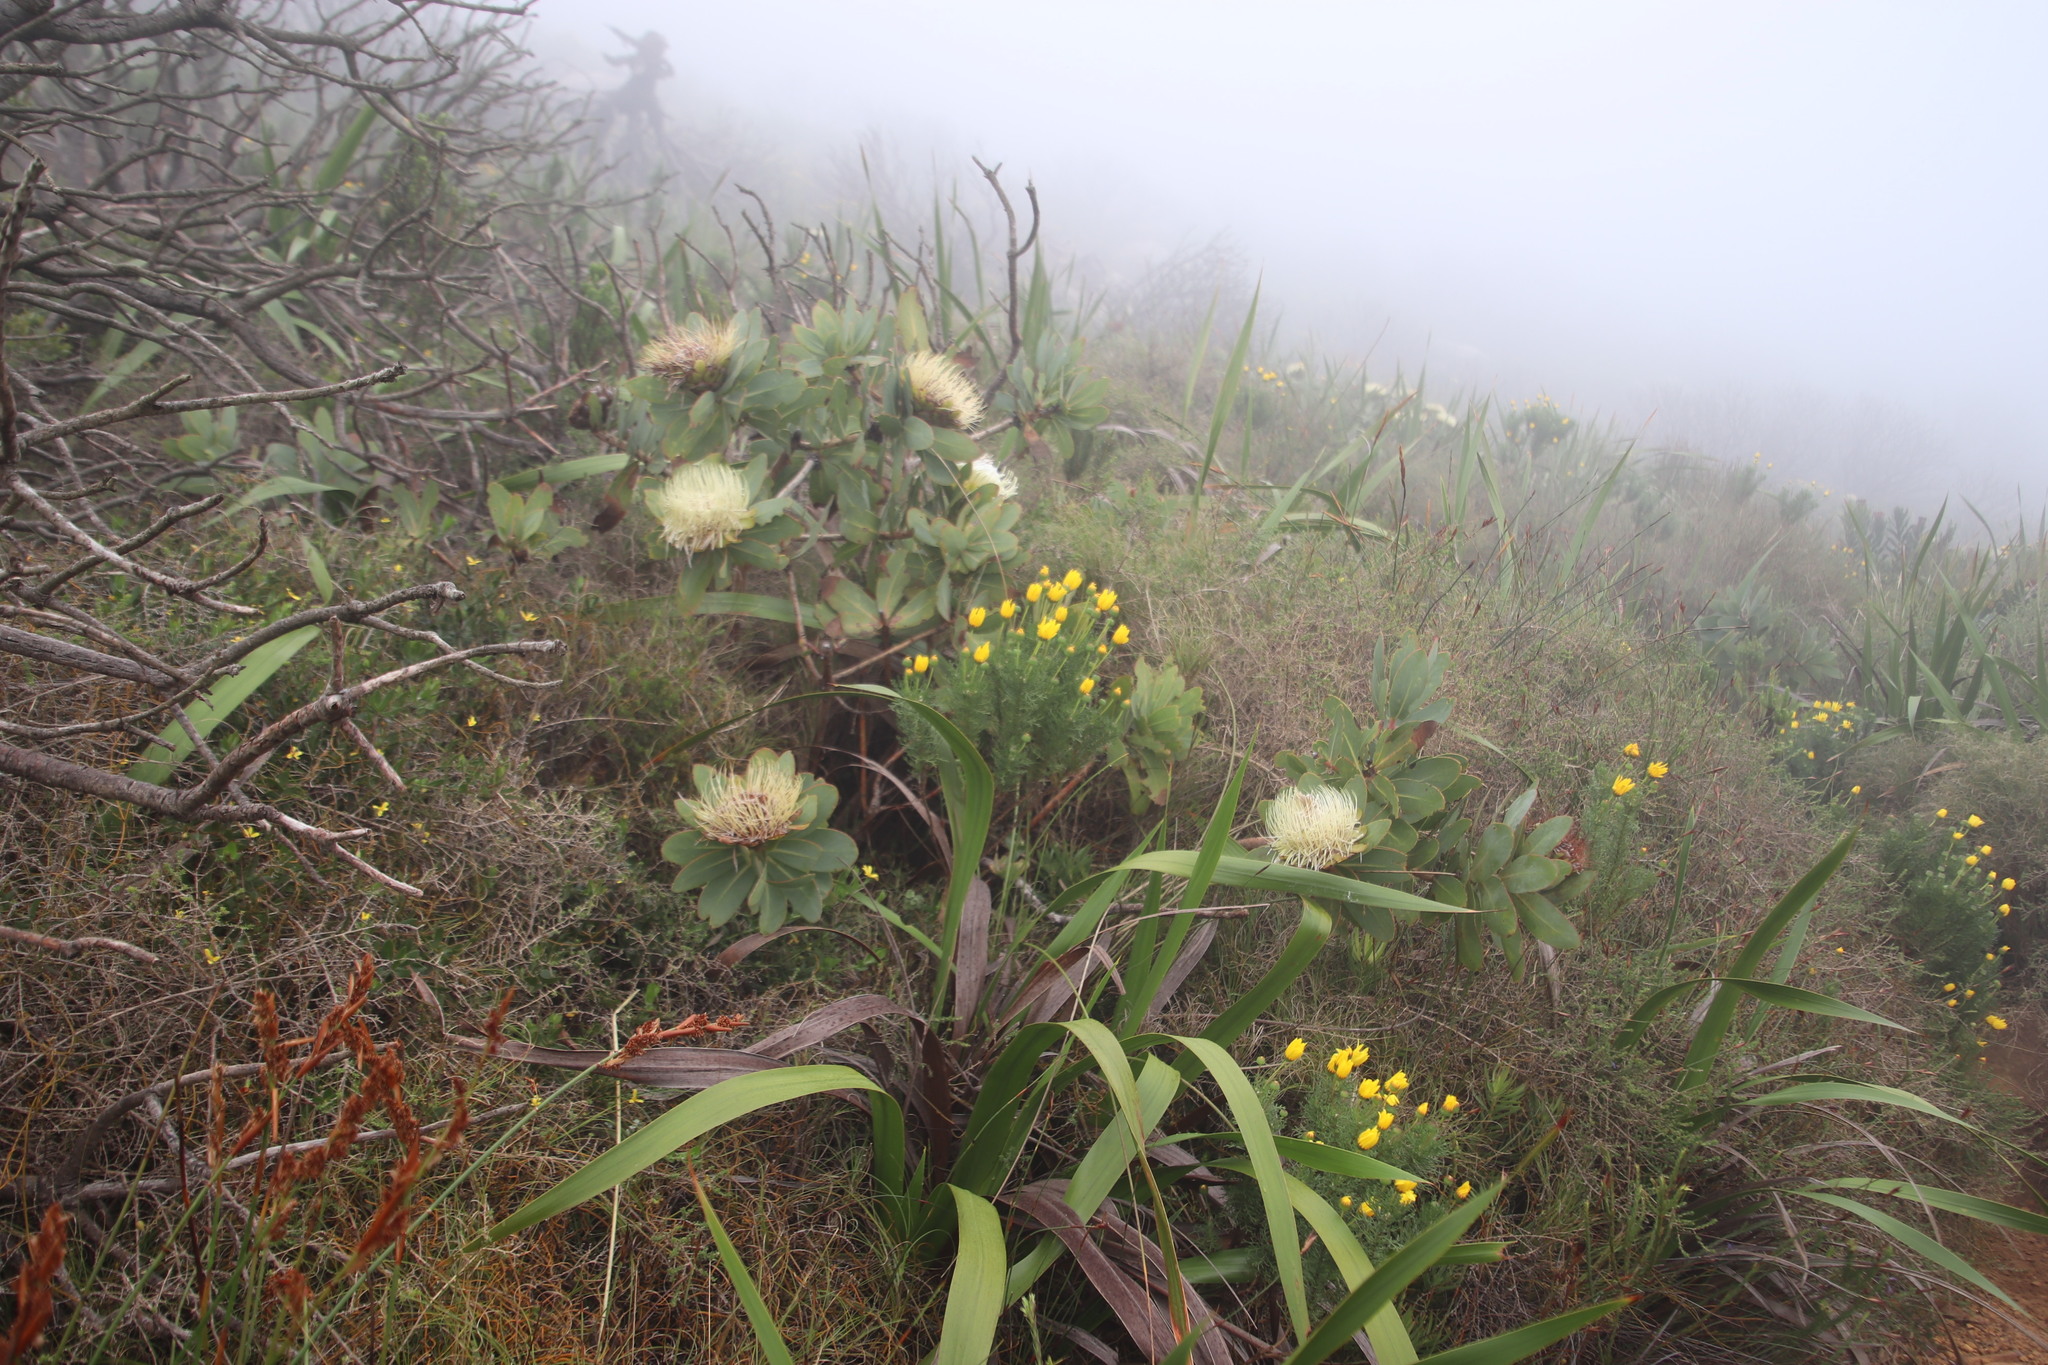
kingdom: Plantae
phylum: Tracheophyta
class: Magnoliopsida
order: Proteales
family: Proteaceae
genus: Protea
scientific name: Protea nitida
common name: Tree protea
